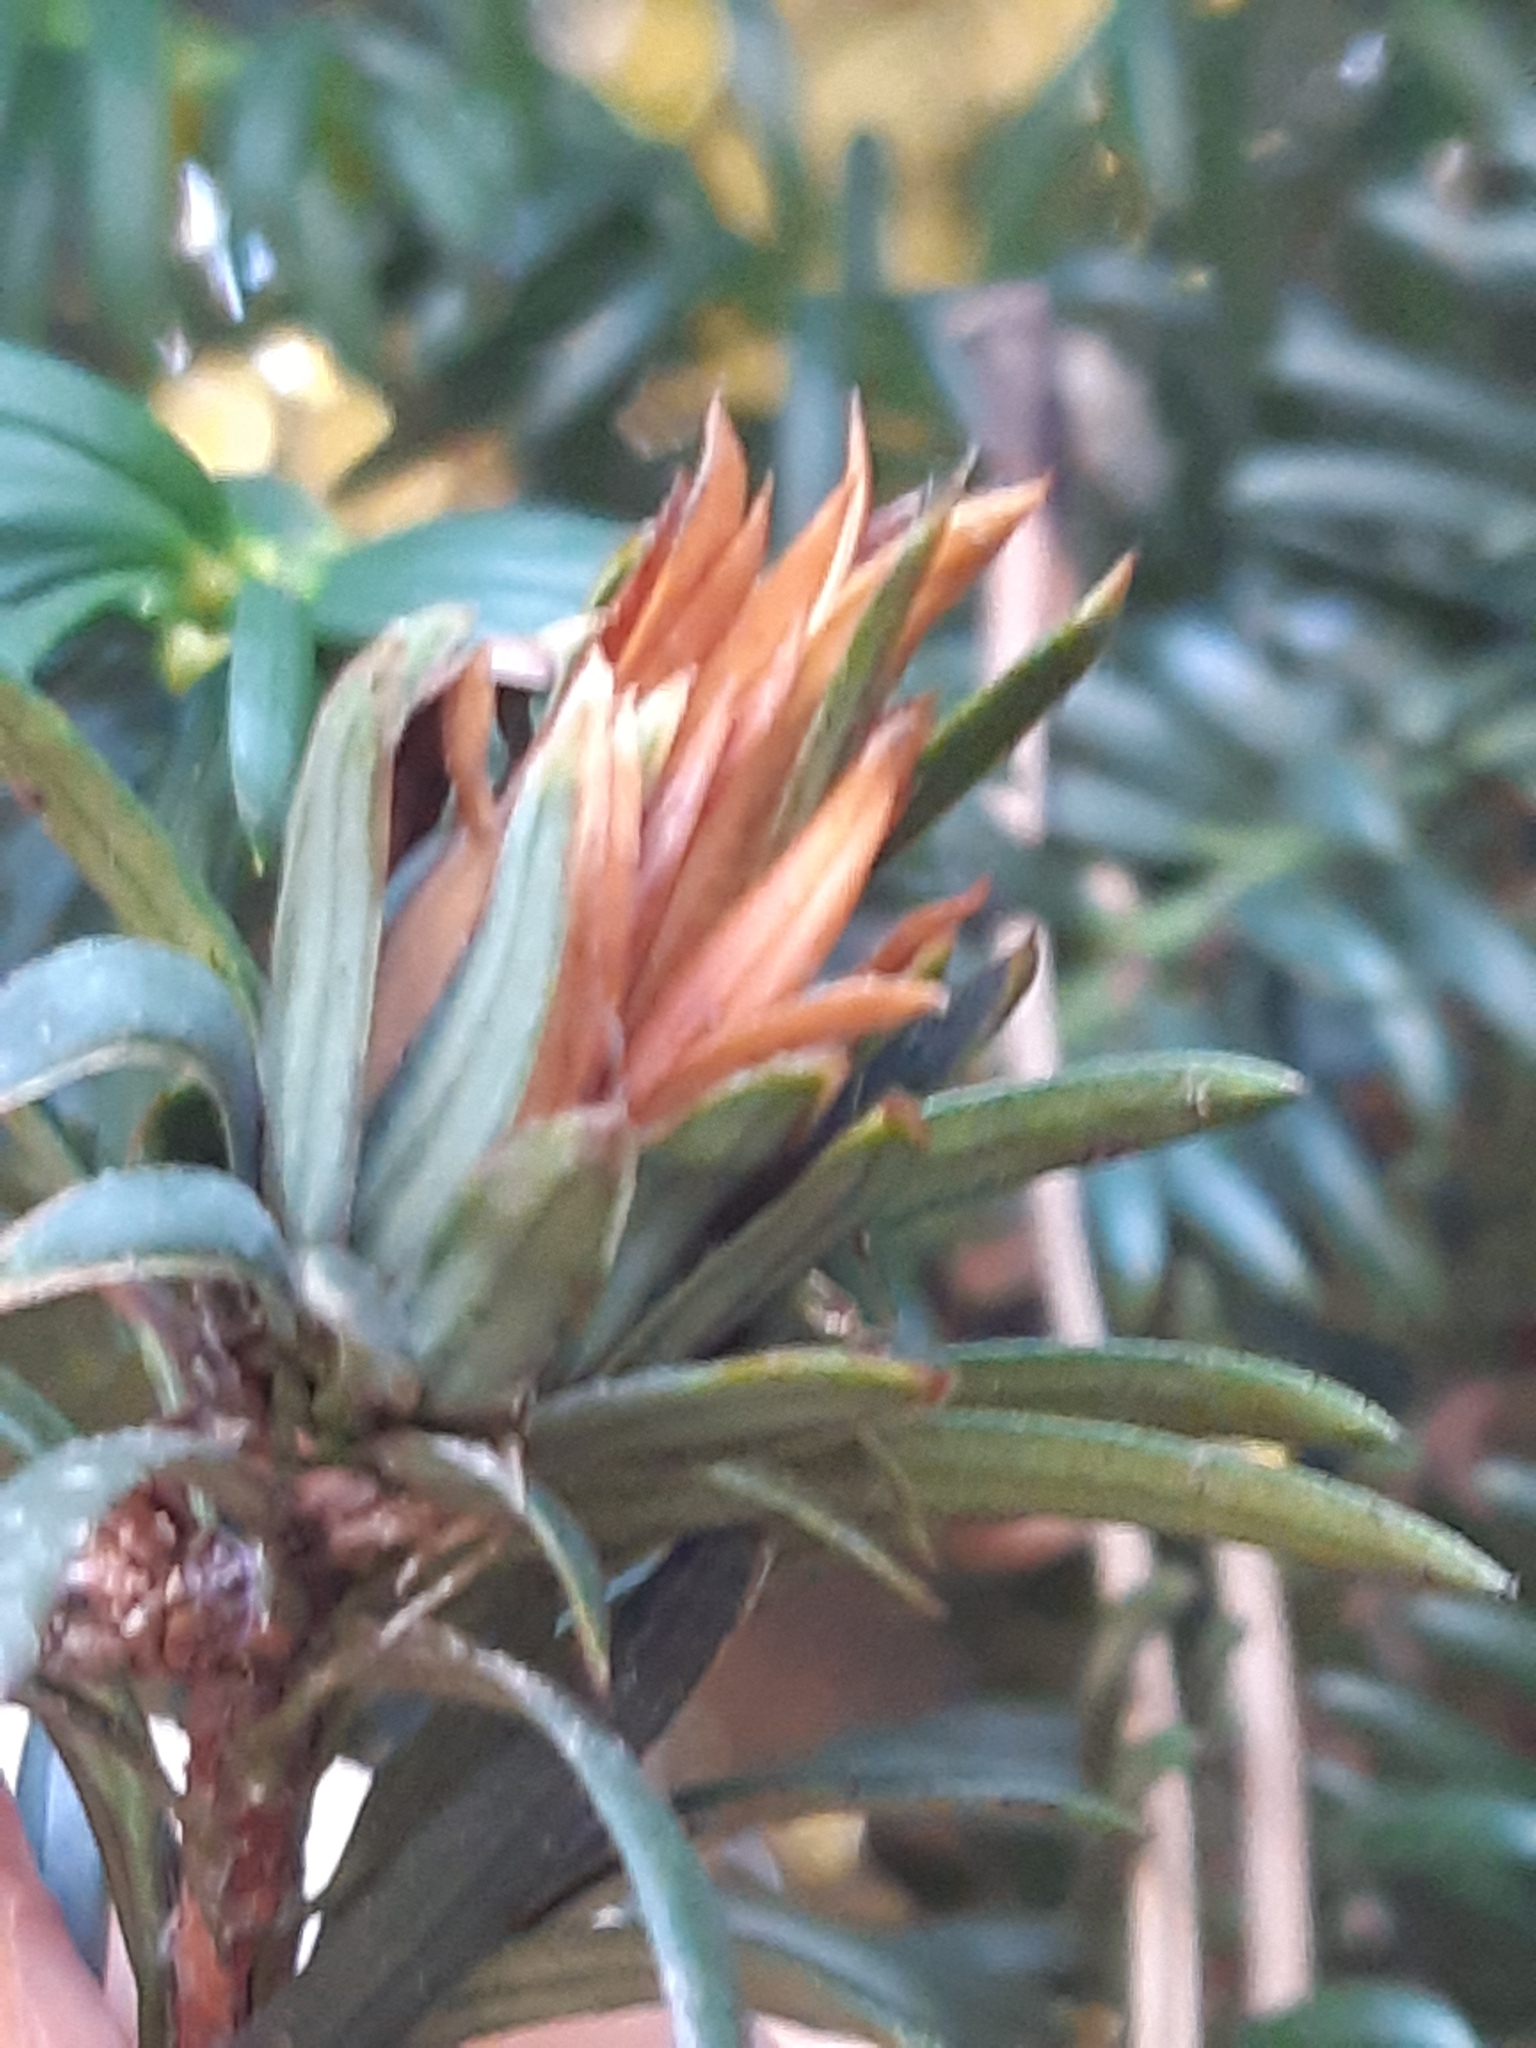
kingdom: Animalia
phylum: Arthropoda
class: Insecta
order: Diptera
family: Cecidomyiidae
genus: Taxomyia
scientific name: Taxomyia taxi
